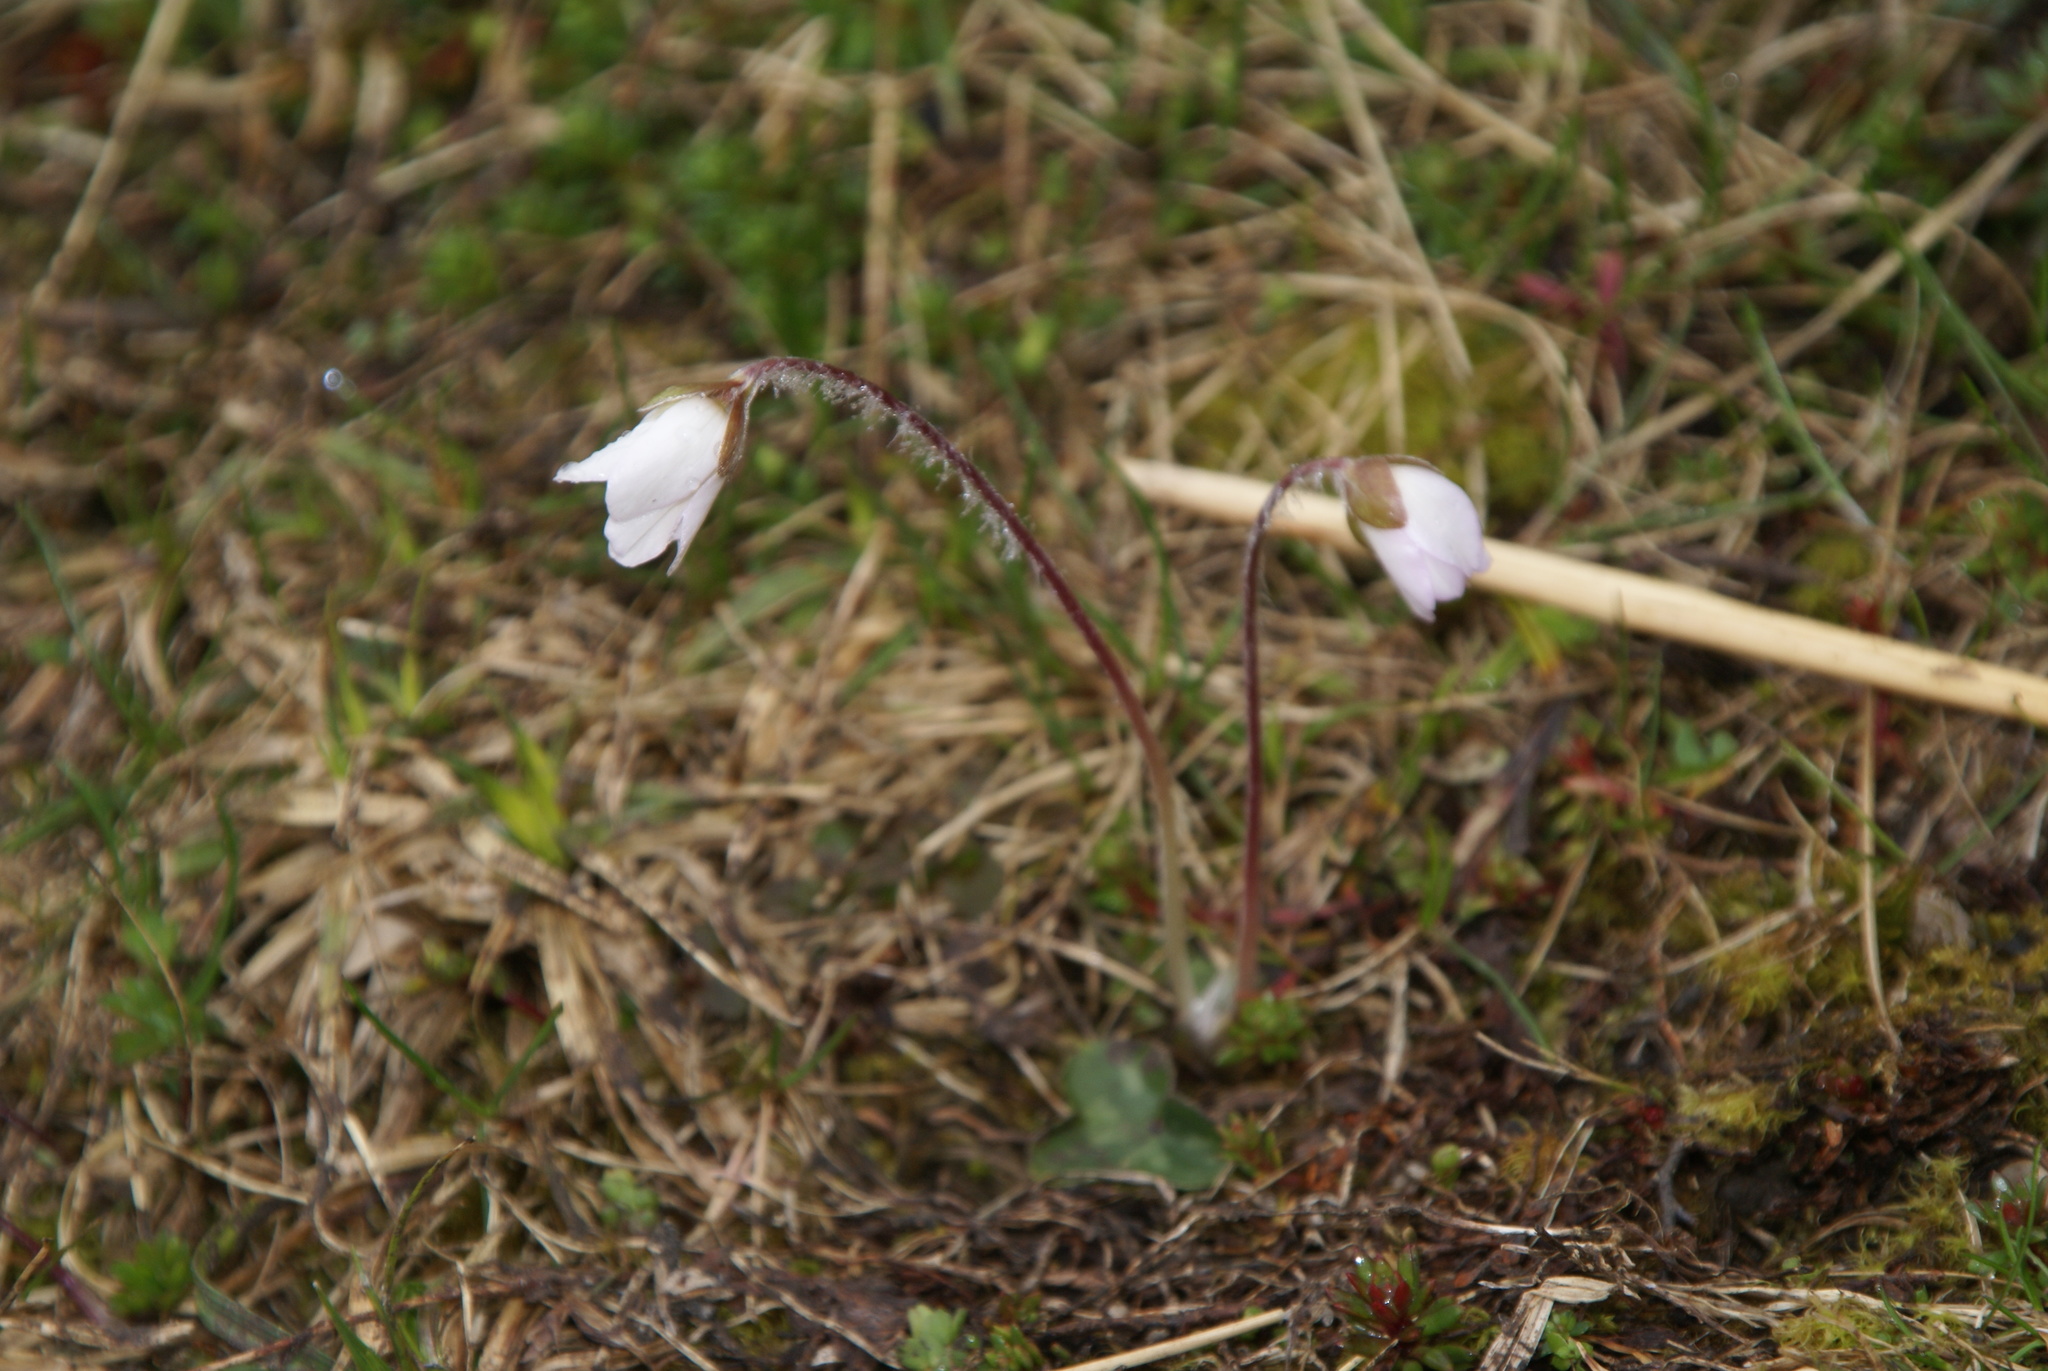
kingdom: Plantae
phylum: Tracheophyta
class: Magnoliopsida
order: Ranunculales
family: Ranunculaceae
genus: Hepatica
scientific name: Hepatica nobilis
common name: Liverleaf
